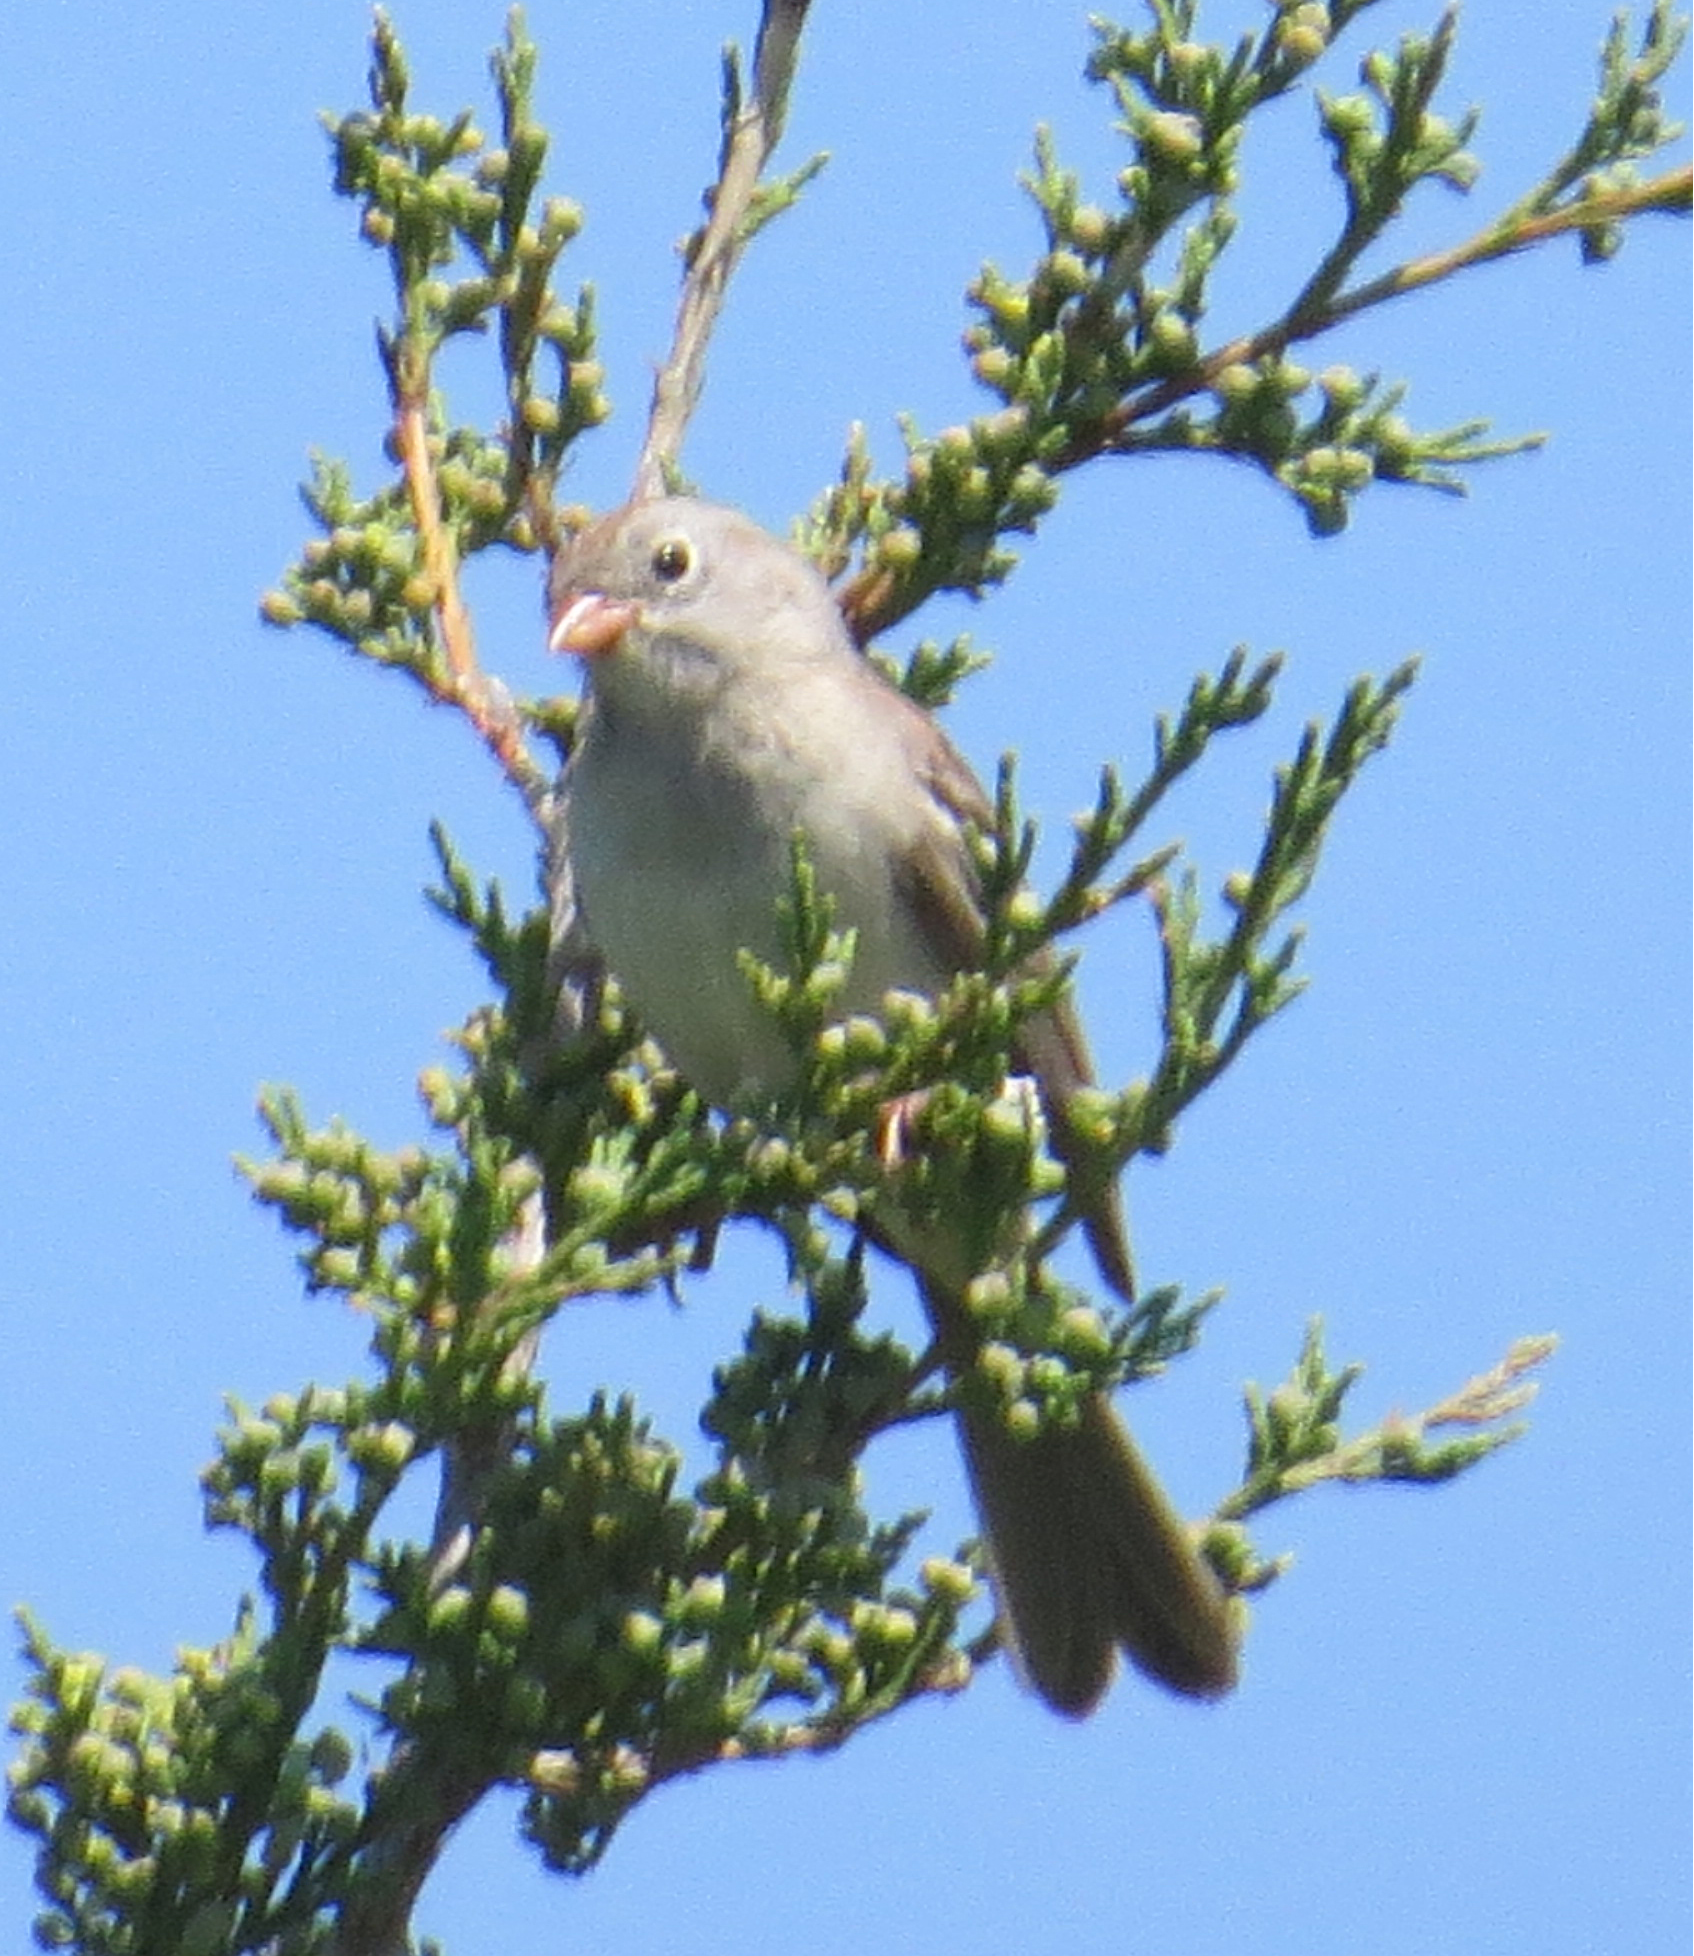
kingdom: Animalia
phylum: Chordata
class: Aves
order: Passeriformes
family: Passerellidae
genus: Spizella
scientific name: Spizella pusilla
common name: Field sparrow
